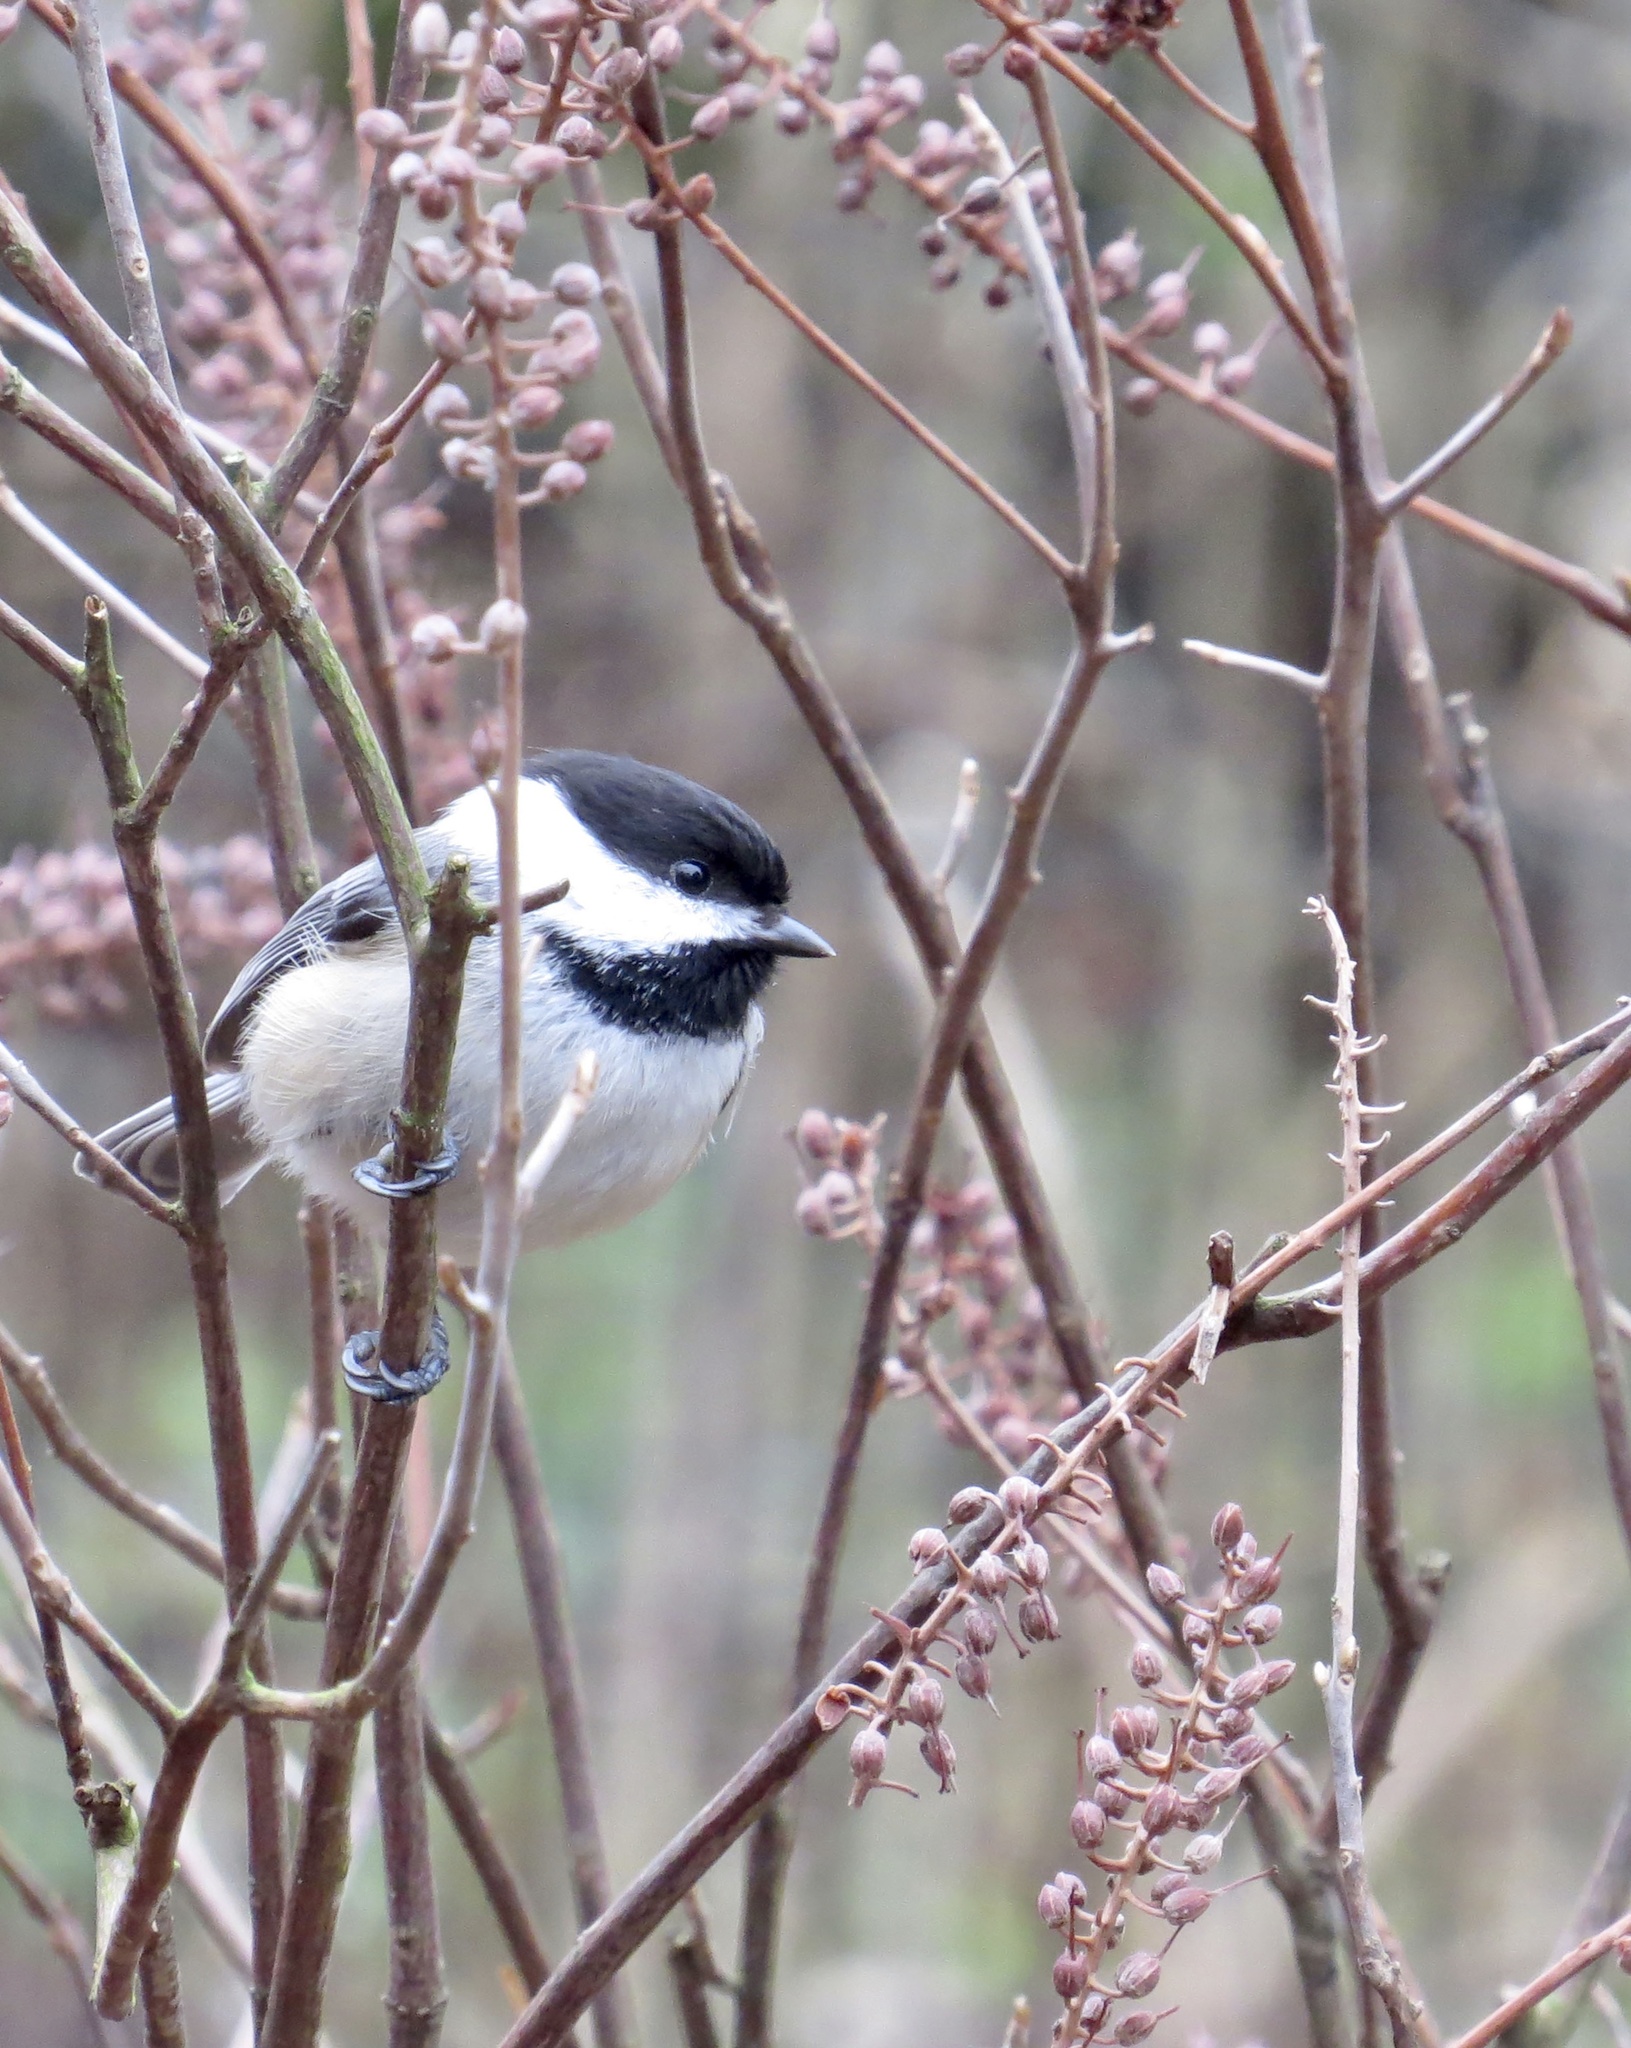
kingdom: Animalia
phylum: Chordata
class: Aves
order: Passeriformes
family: Paridae
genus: Poecile
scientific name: Poecile atricapillus
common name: Black-capped chickadee
